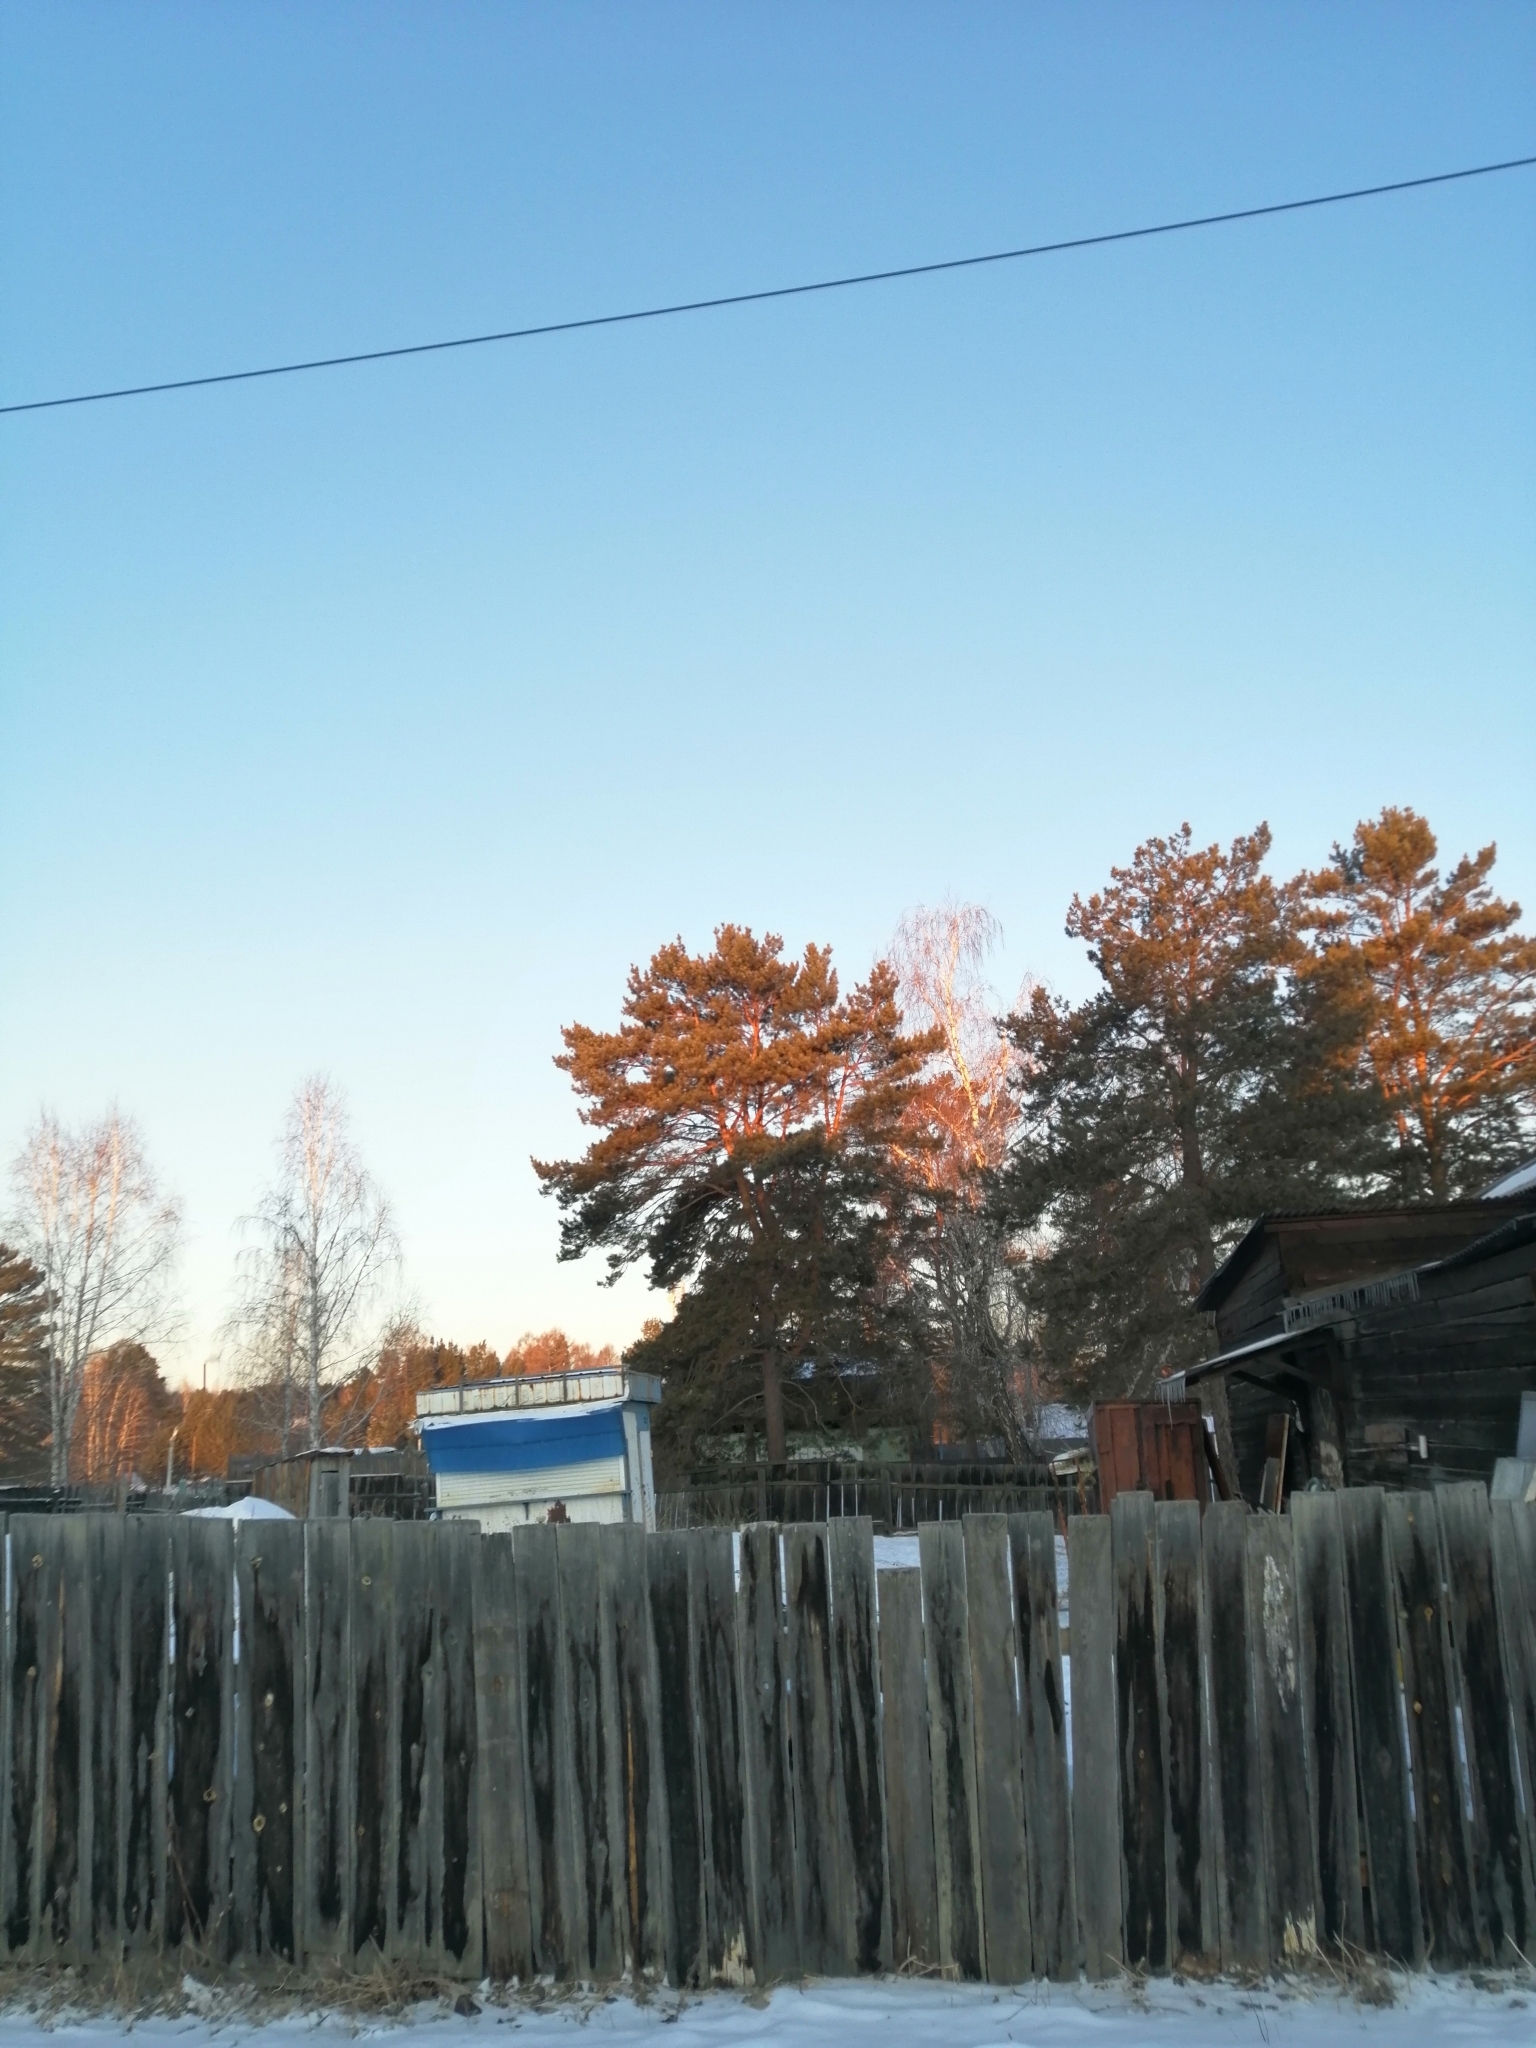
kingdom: Plantae
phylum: Tracheophyta
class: Pinopsida
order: Pinales
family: Pinaceae
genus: Pinus
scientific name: Pinus sylvestris
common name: Scots pine
